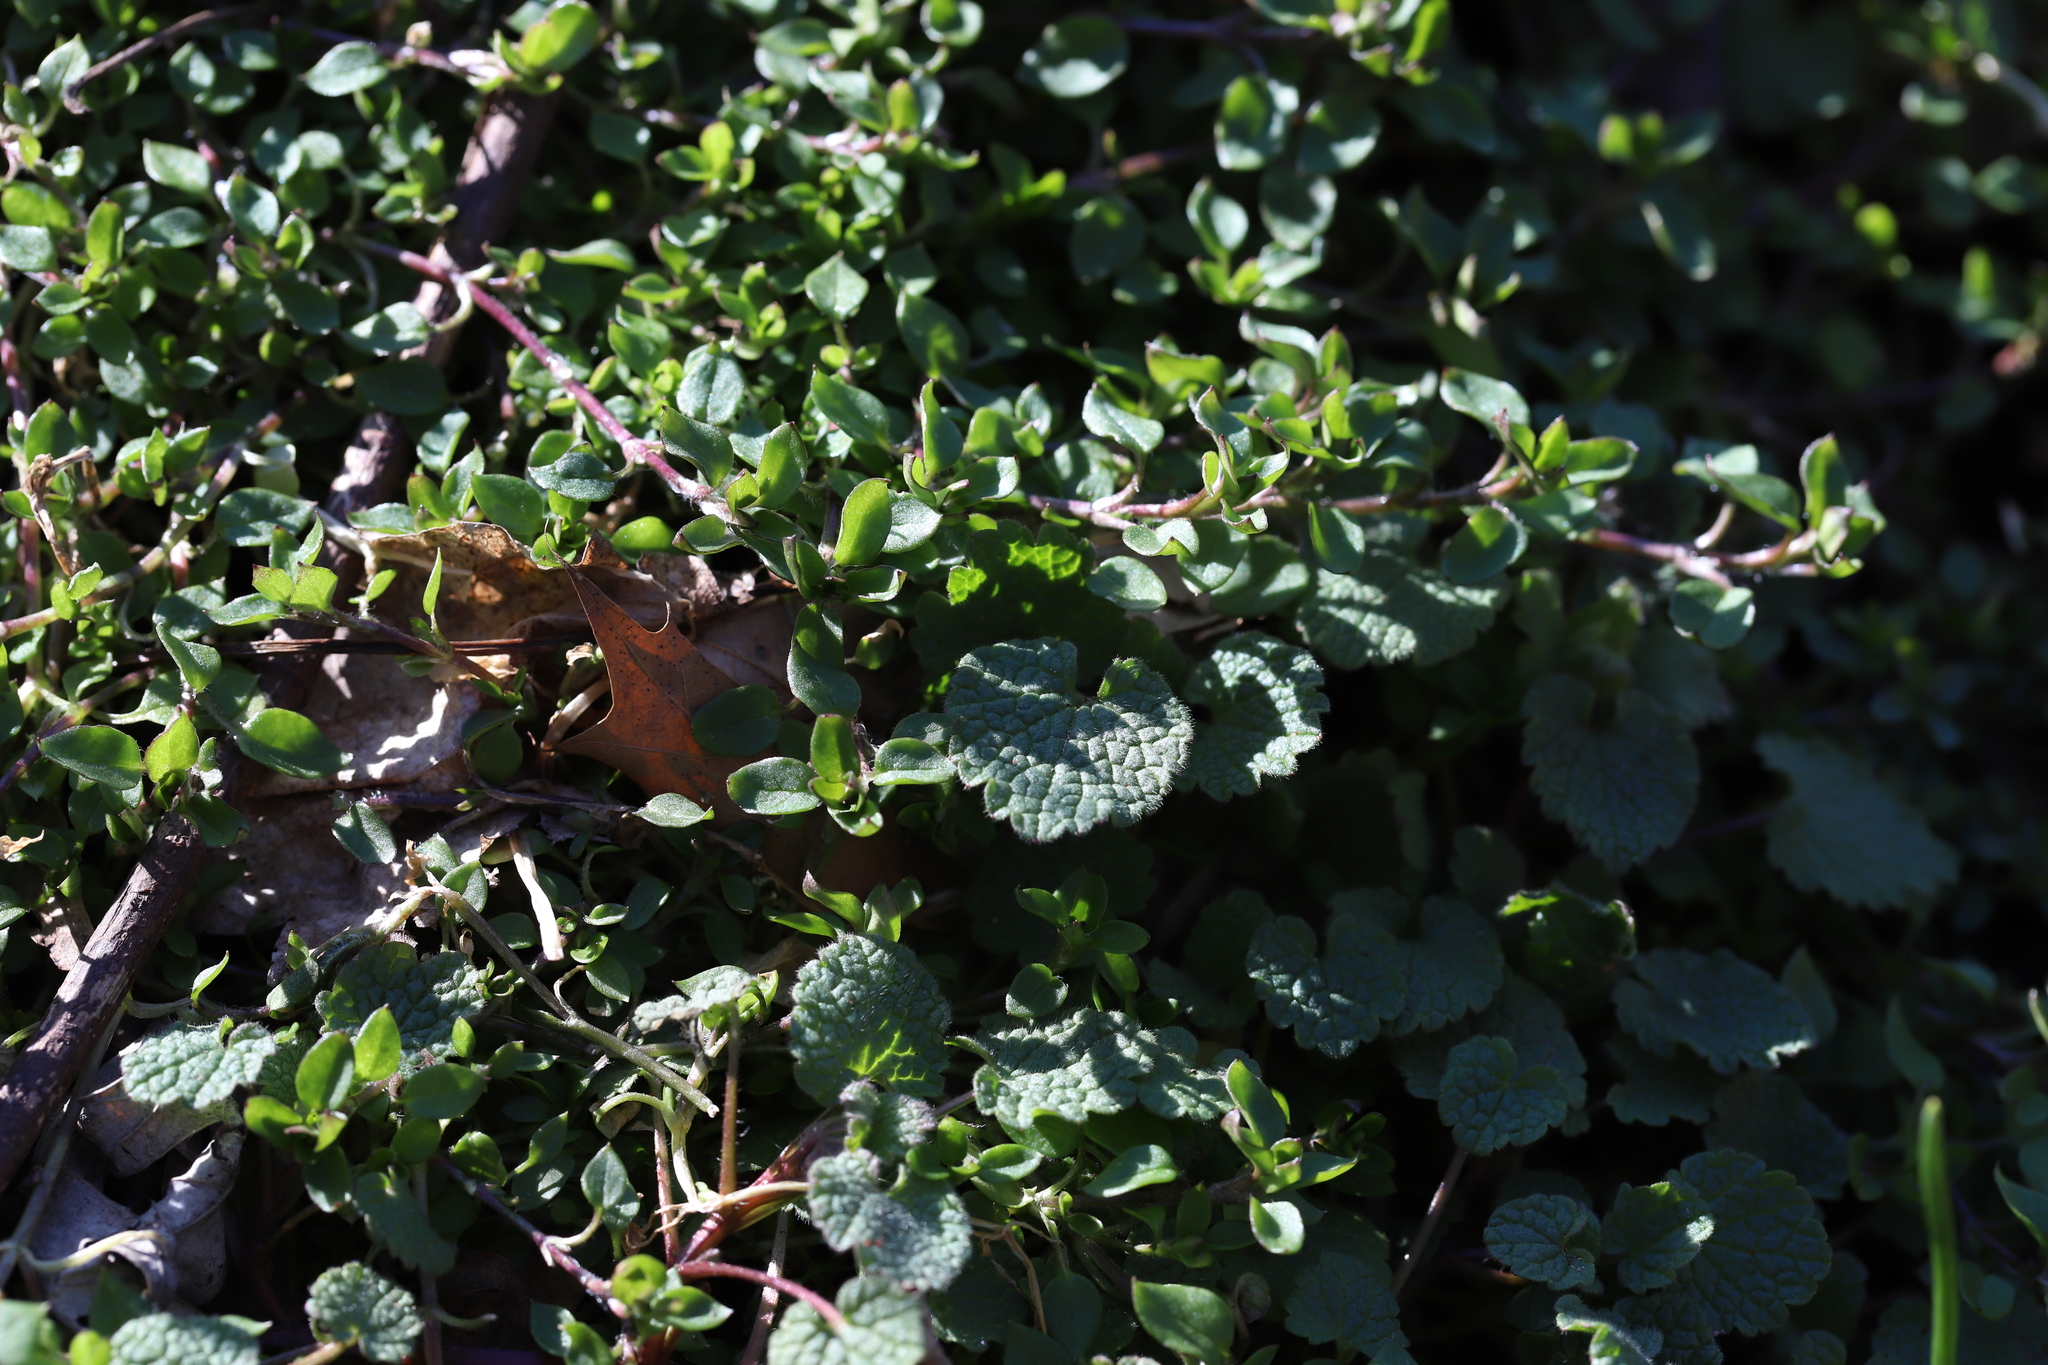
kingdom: Plantae
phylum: Tracheophyta
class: Magnoliopsida
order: Lamiales
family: Lamiaceae
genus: Lamium
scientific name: Lamium purpureum
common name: Red dead-nettle
